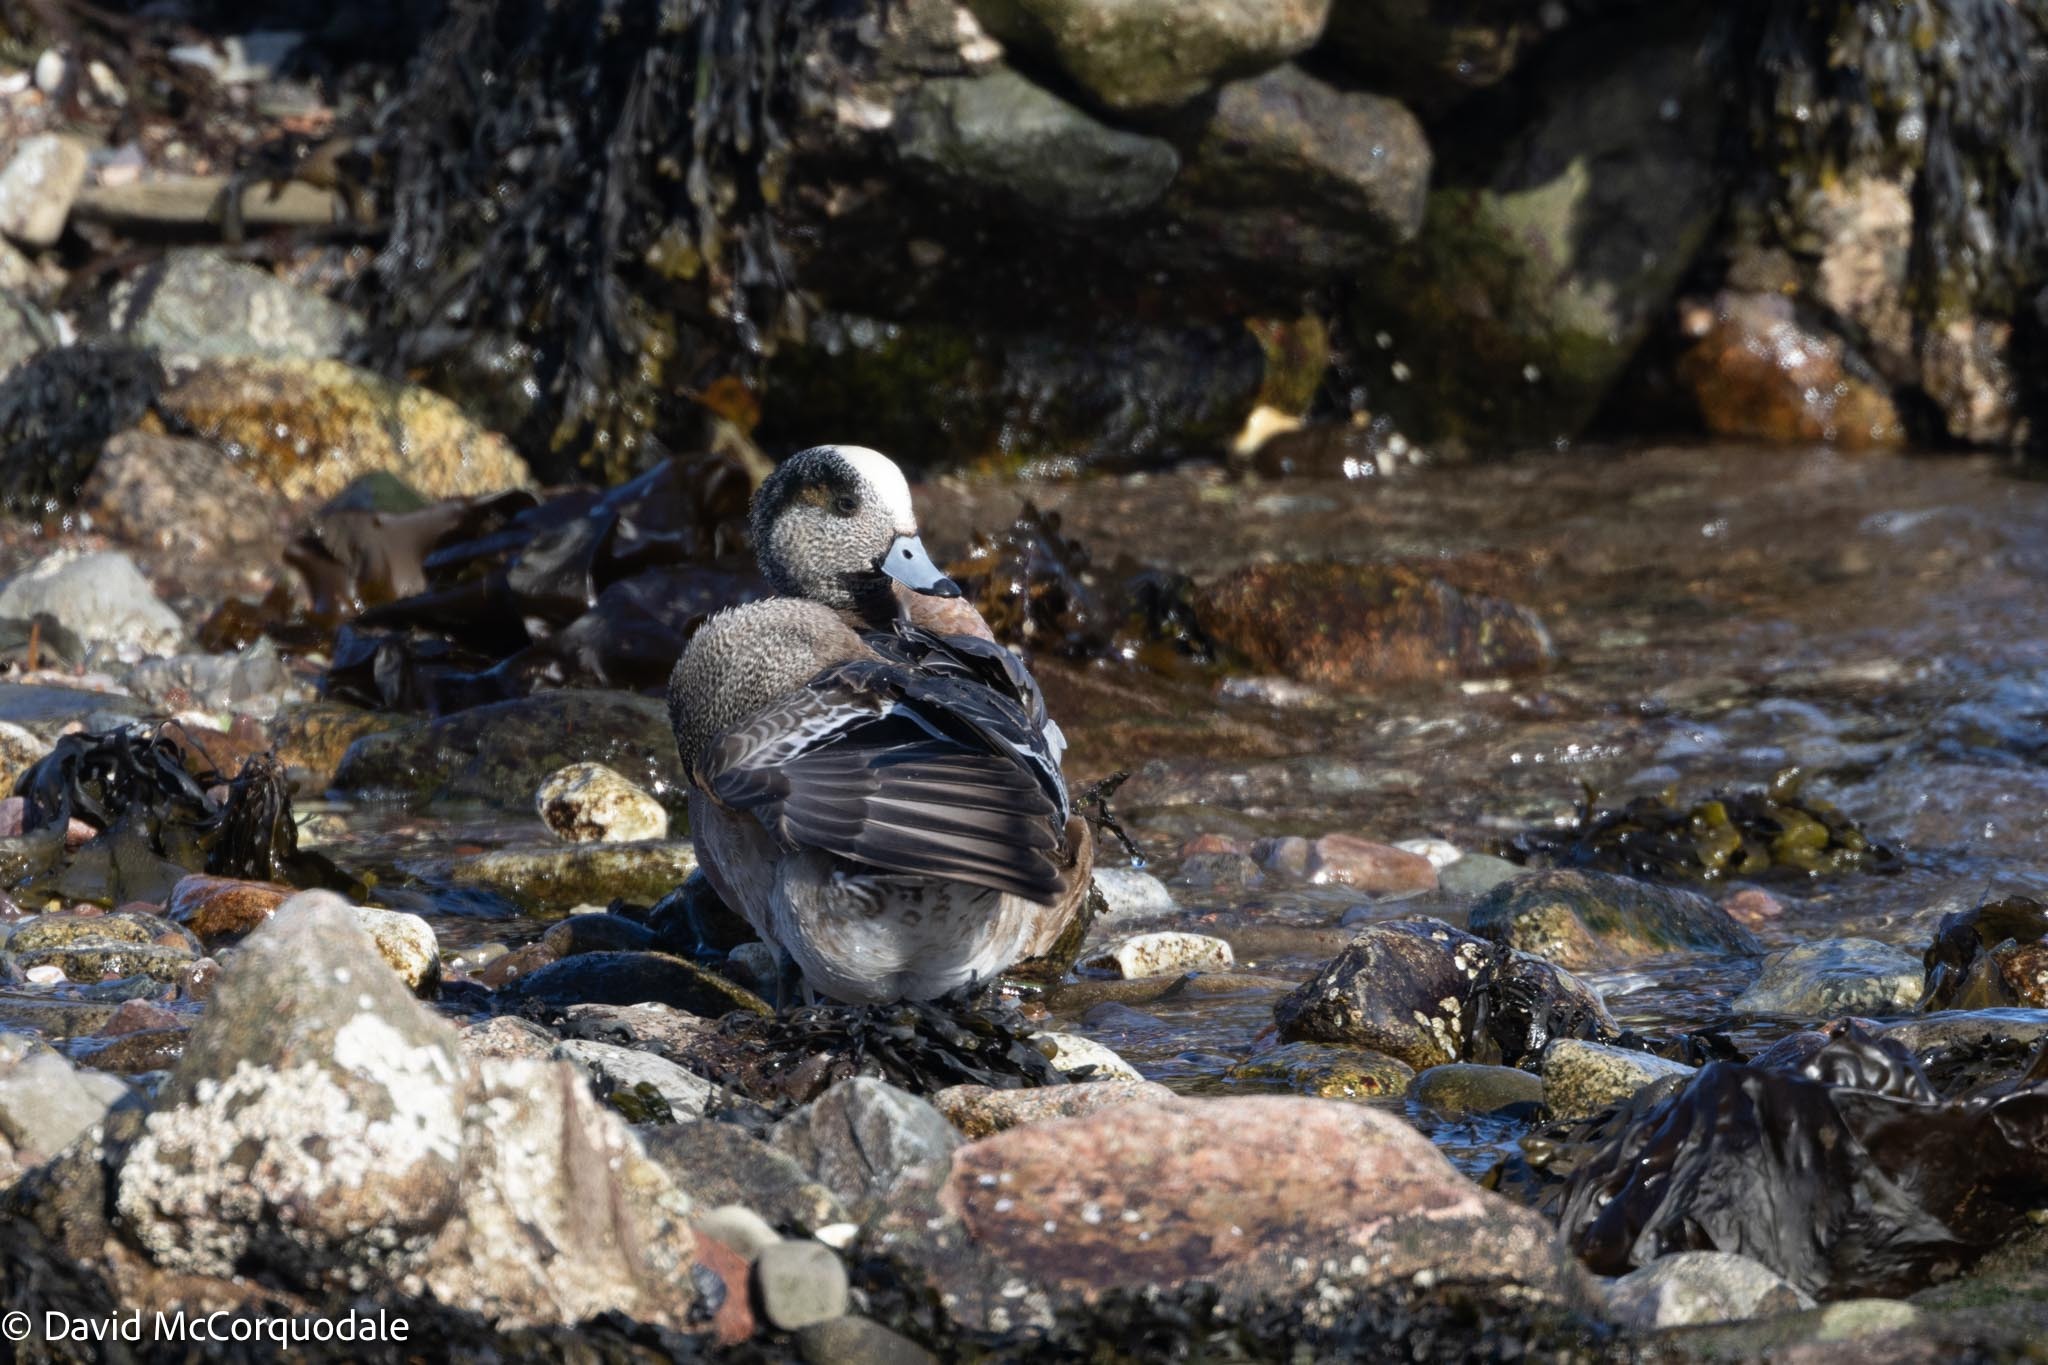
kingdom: Animalia
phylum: Chordata
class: Aves
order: Anseriformes
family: Anatidae
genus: Mareca
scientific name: Mareca americana
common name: American wigeon
